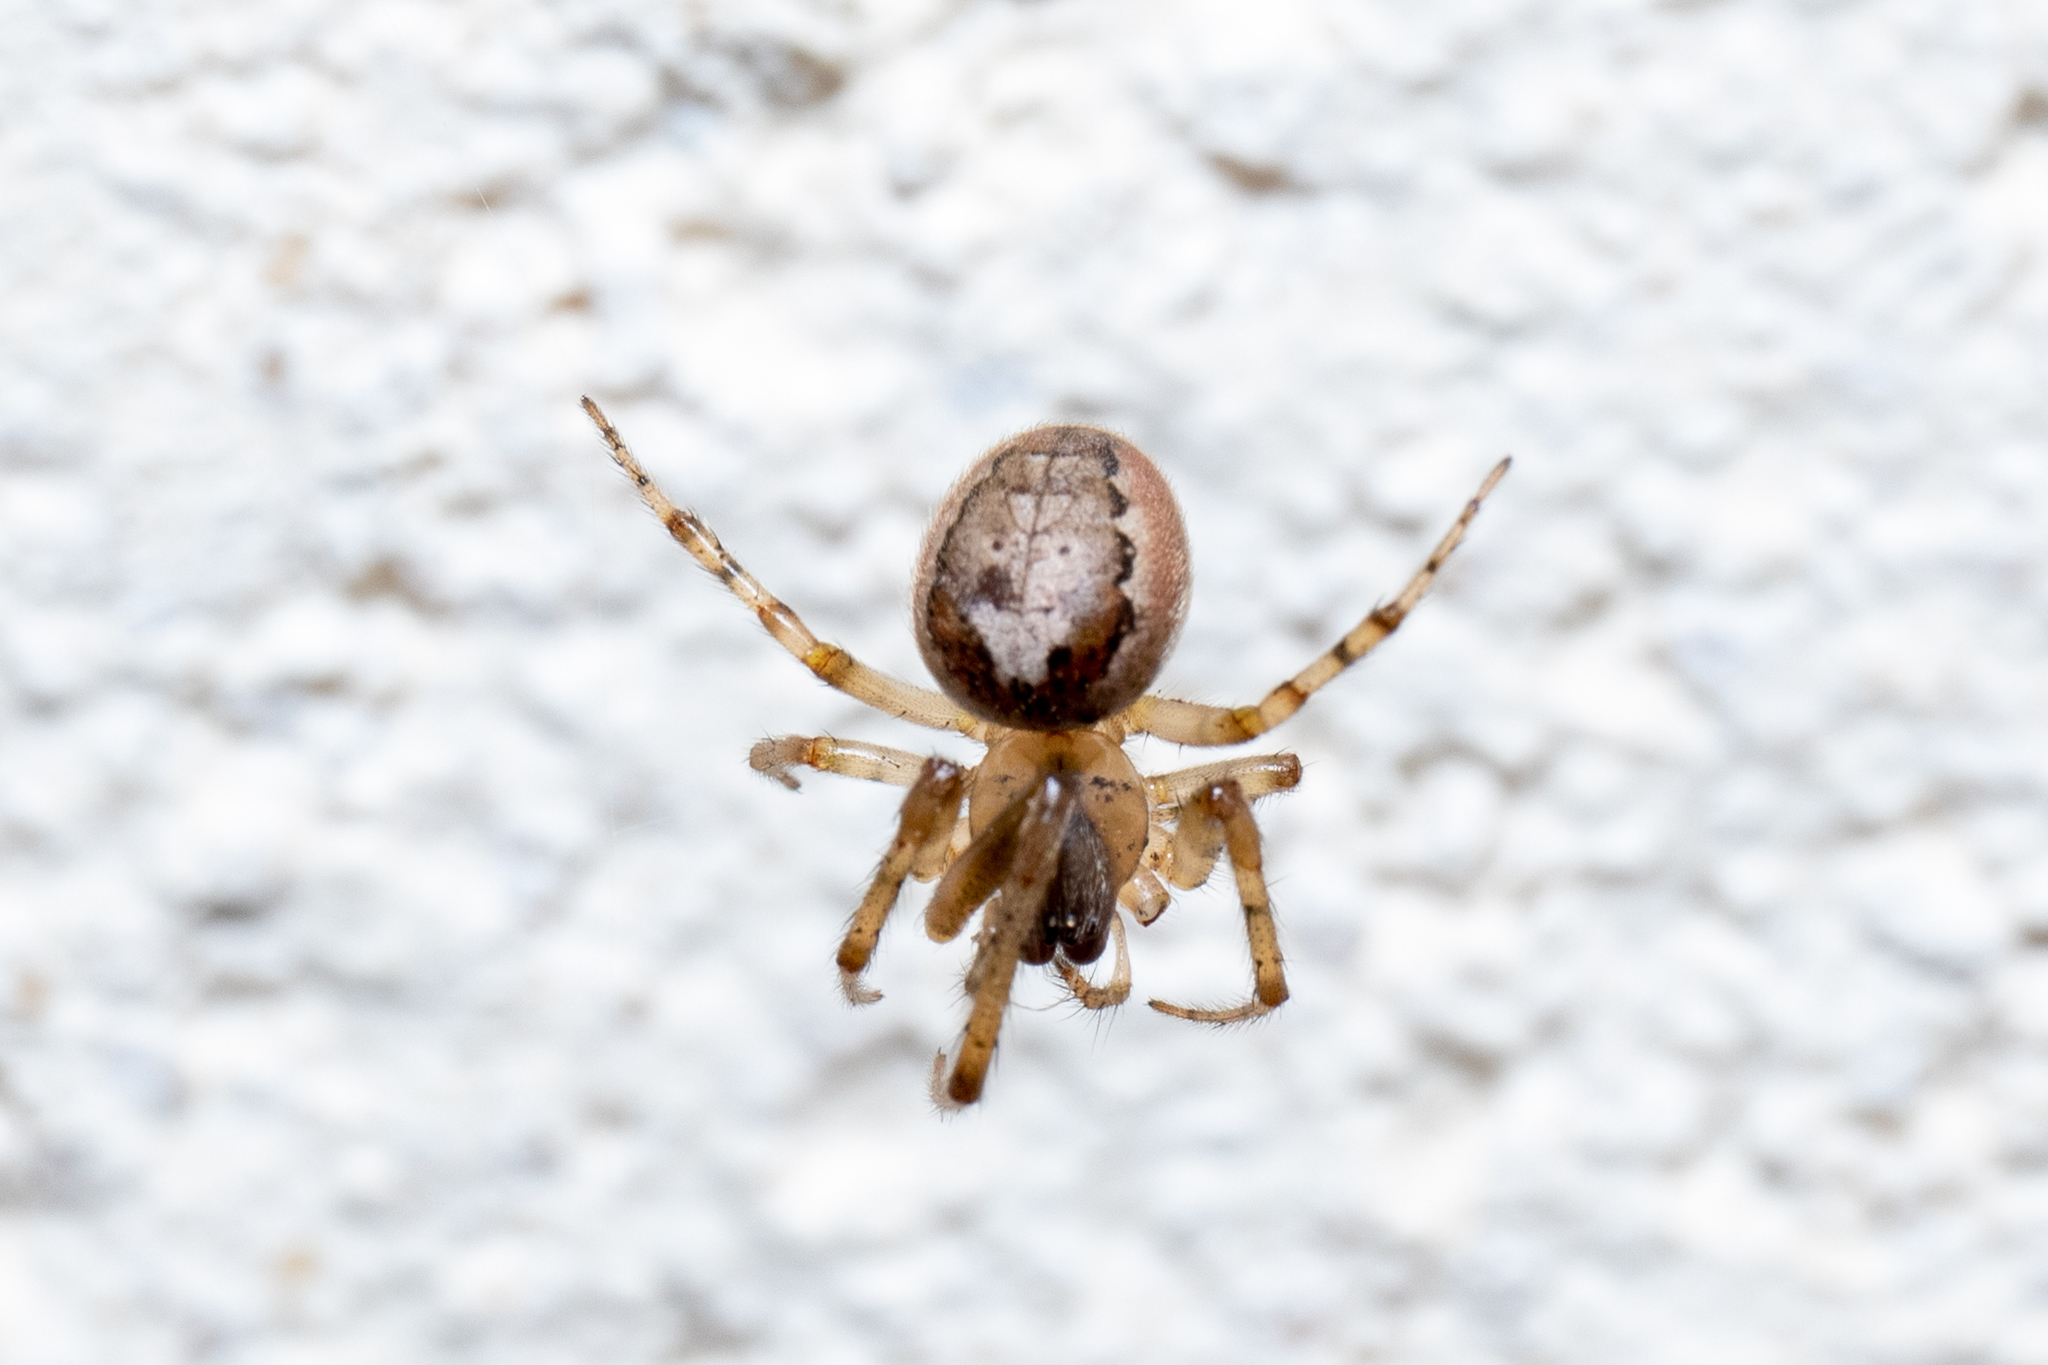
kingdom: Animalia
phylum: Arthropoda
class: Arachnida
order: Araneae
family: Araneidae
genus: Zygiella
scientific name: Zygiella x-notata
